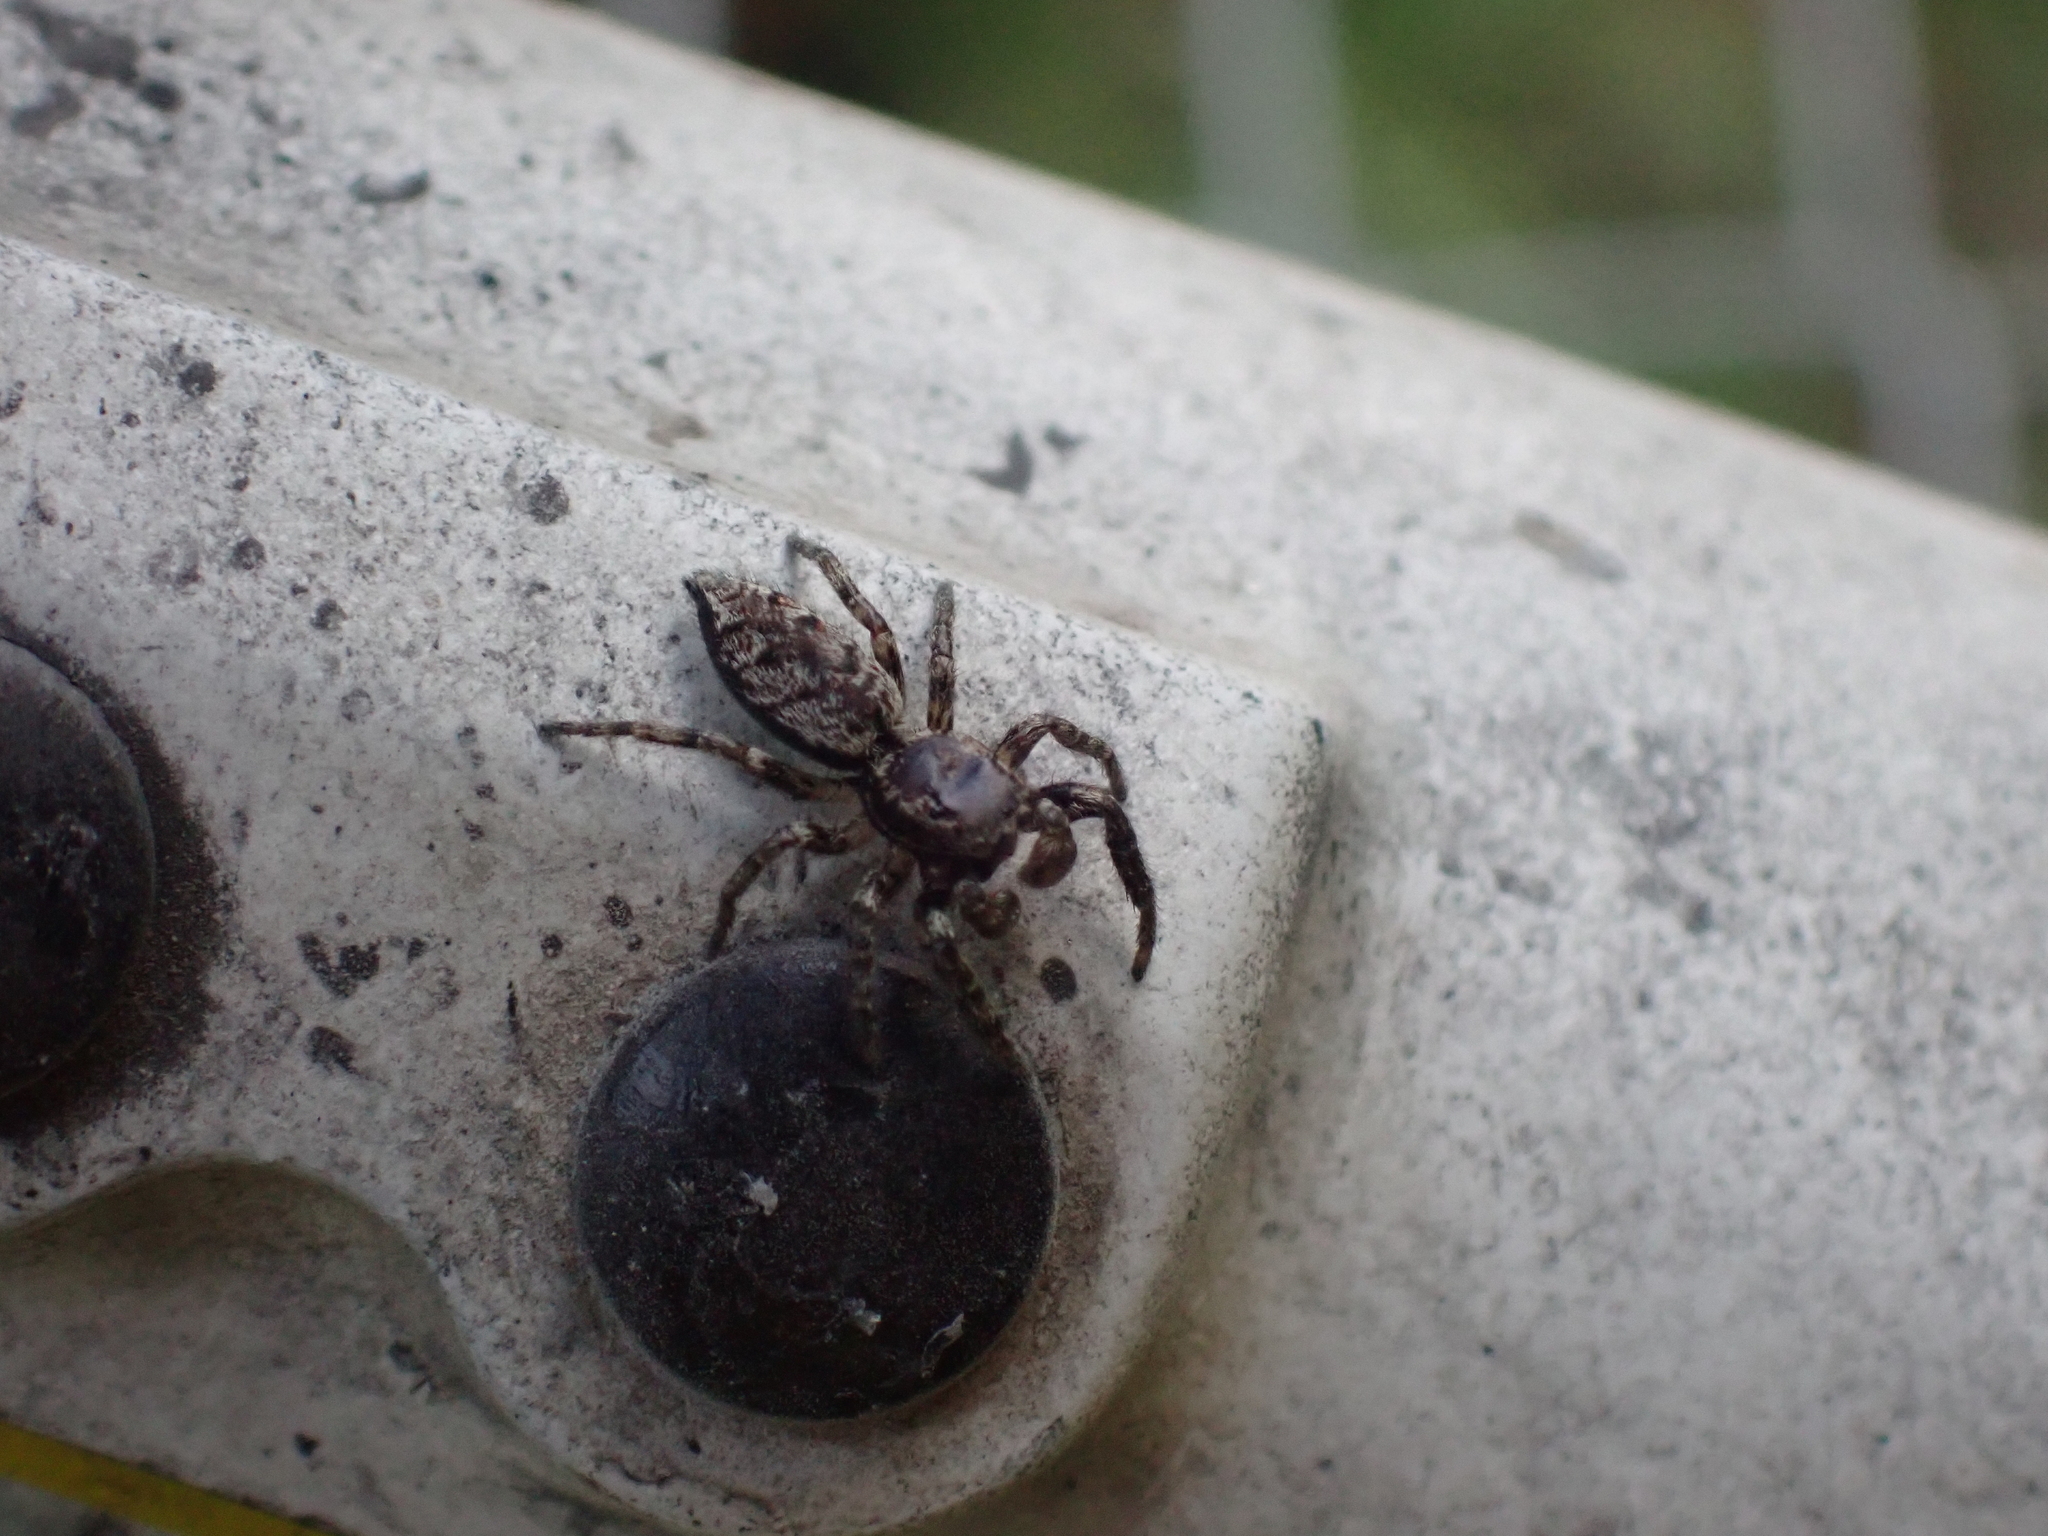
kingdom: Animalia
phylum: Arthropoda
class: Arachnida
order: Araneae
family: Salticidae
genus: Marpissa
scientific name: Marpissa muscosa
